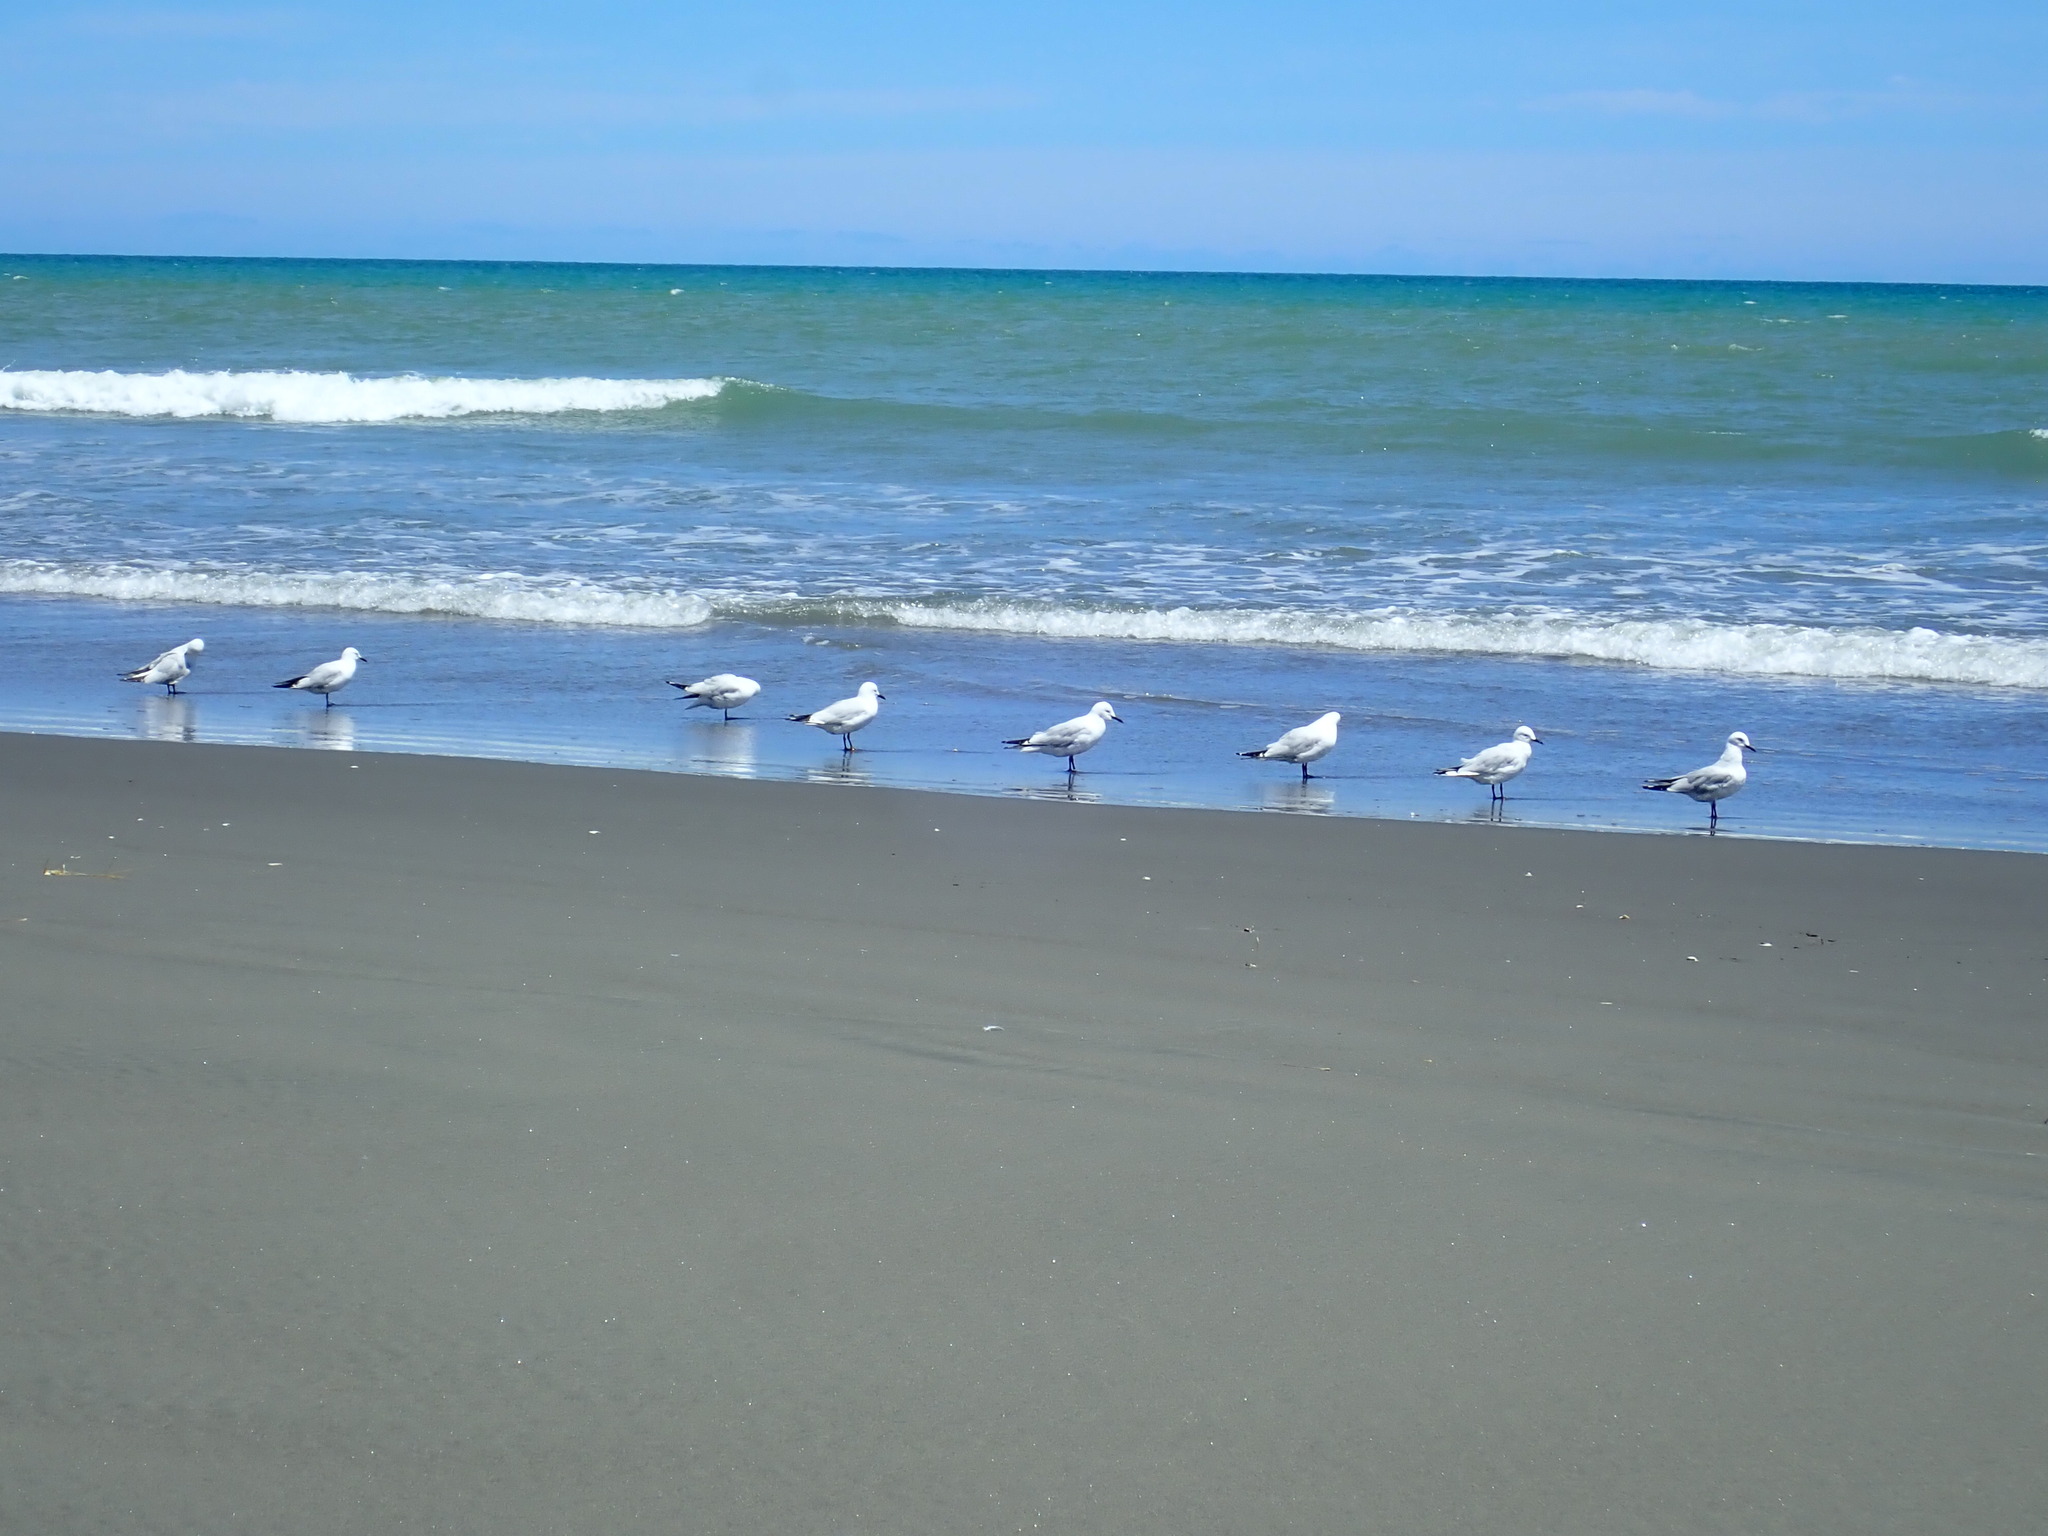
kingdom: Animalia
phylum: Chordata
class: Aves
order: Charadriiformes
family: Laridae
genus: Chroicocephalus
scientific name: Chroicocephalus bulleri
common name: Black-billed gull
